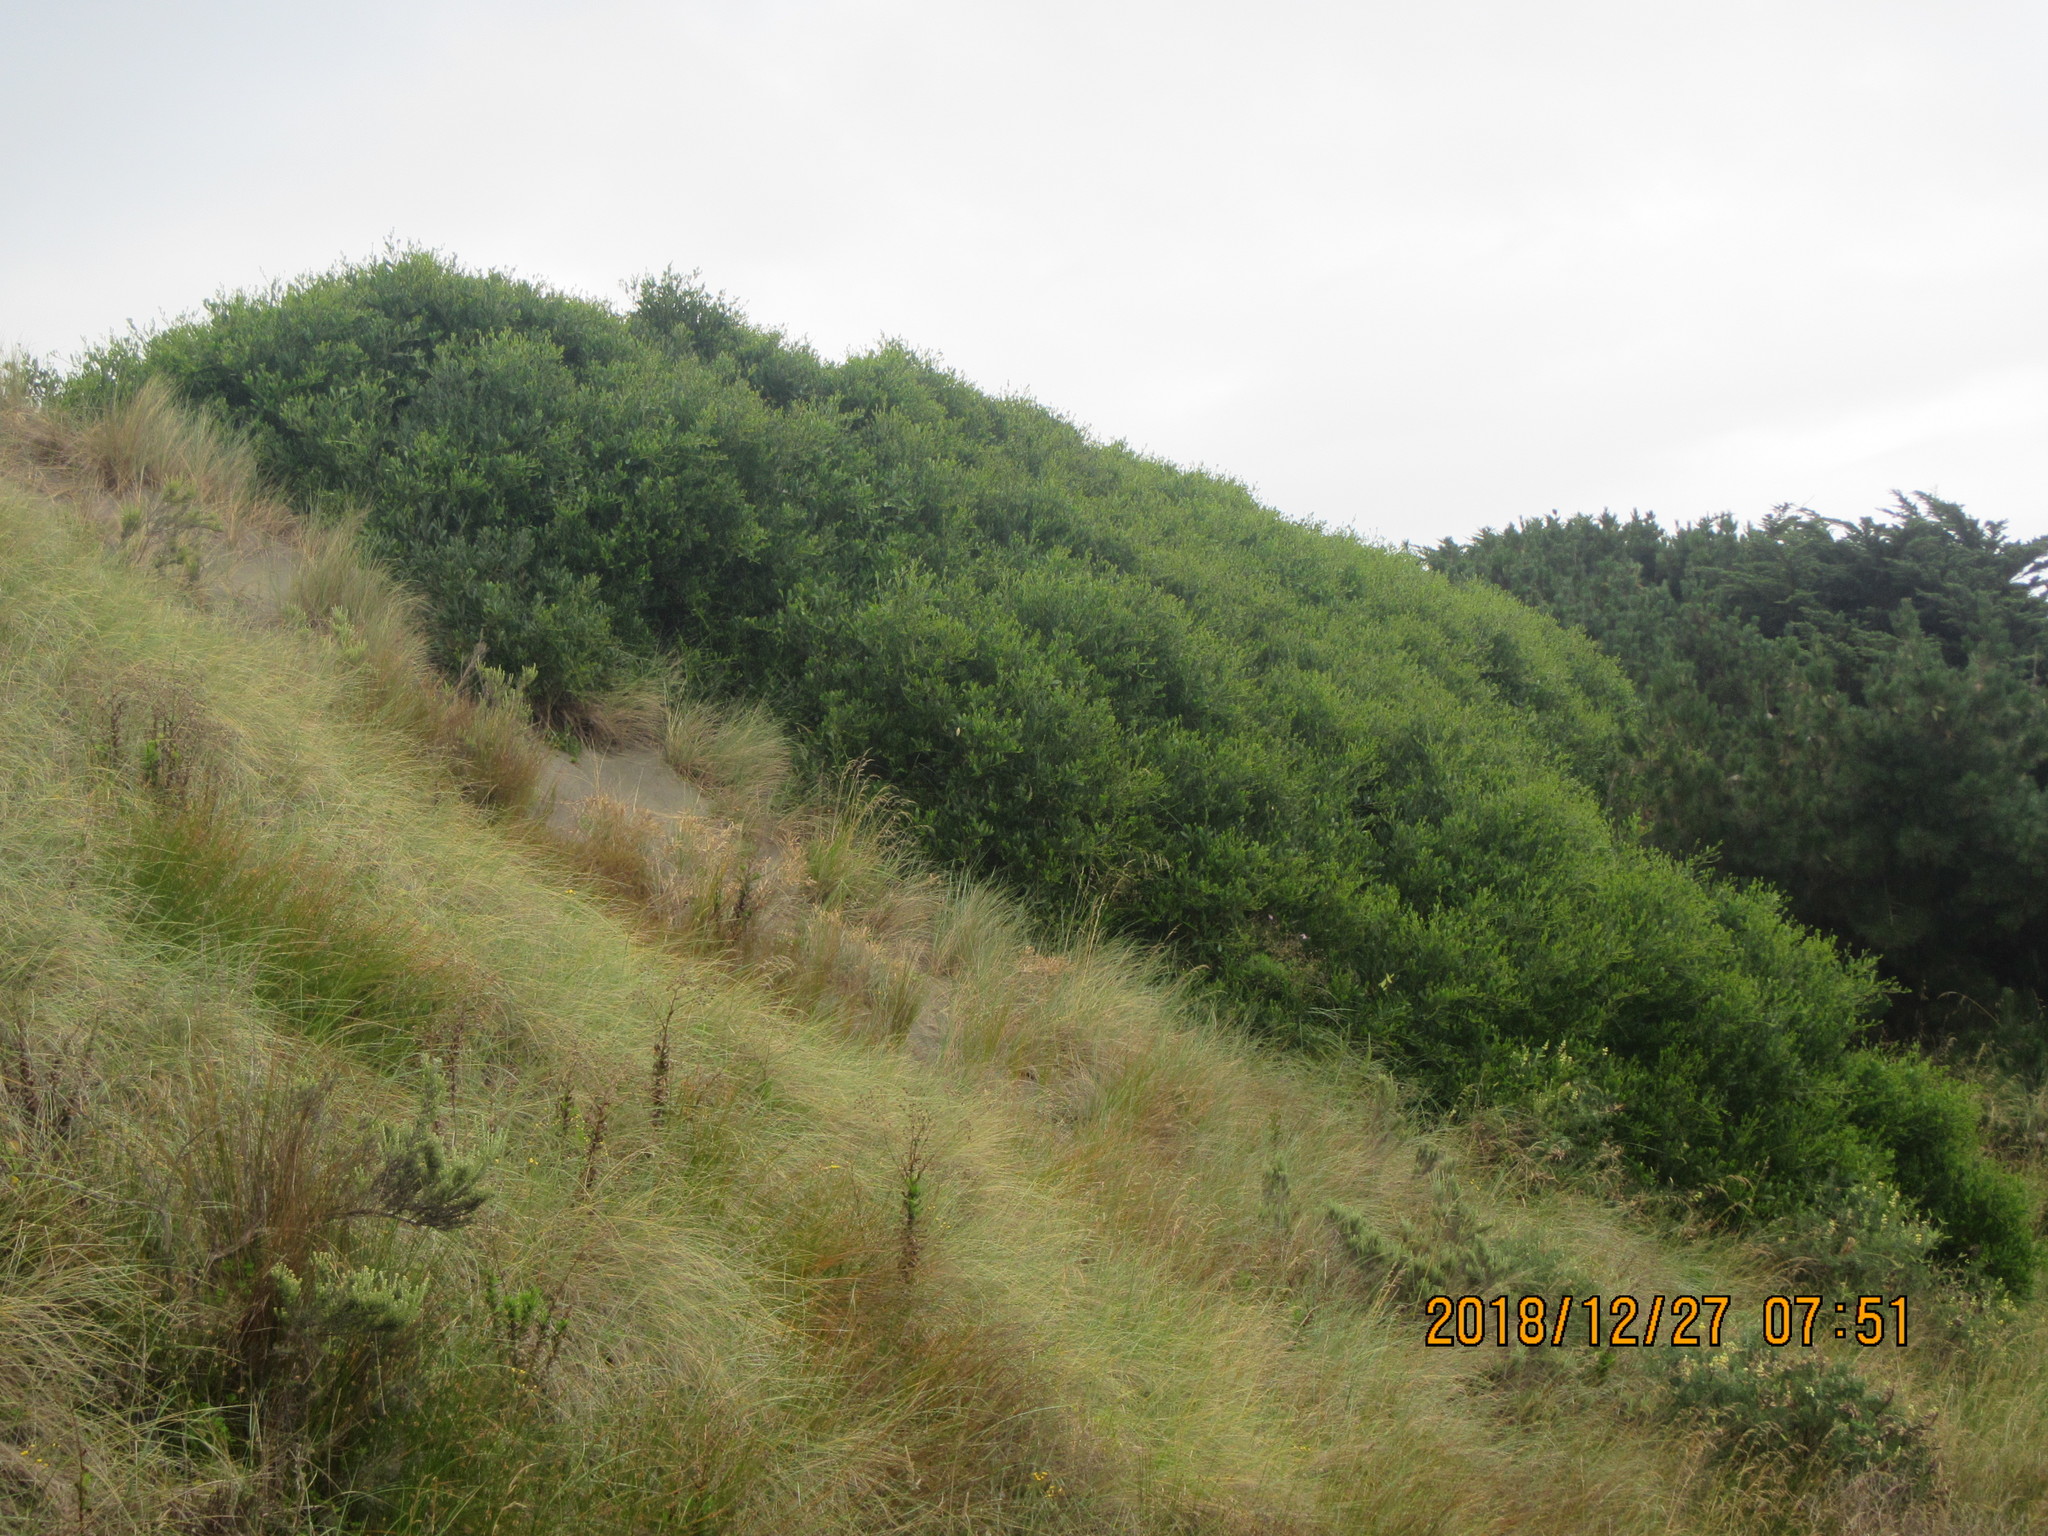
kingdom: Plantae
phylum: Tracheophyta
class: Magnoliopsida
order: Fabales
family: Fabaceae
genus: Acacia
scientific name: Acacia longifolia
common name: Sydney golden wattle
